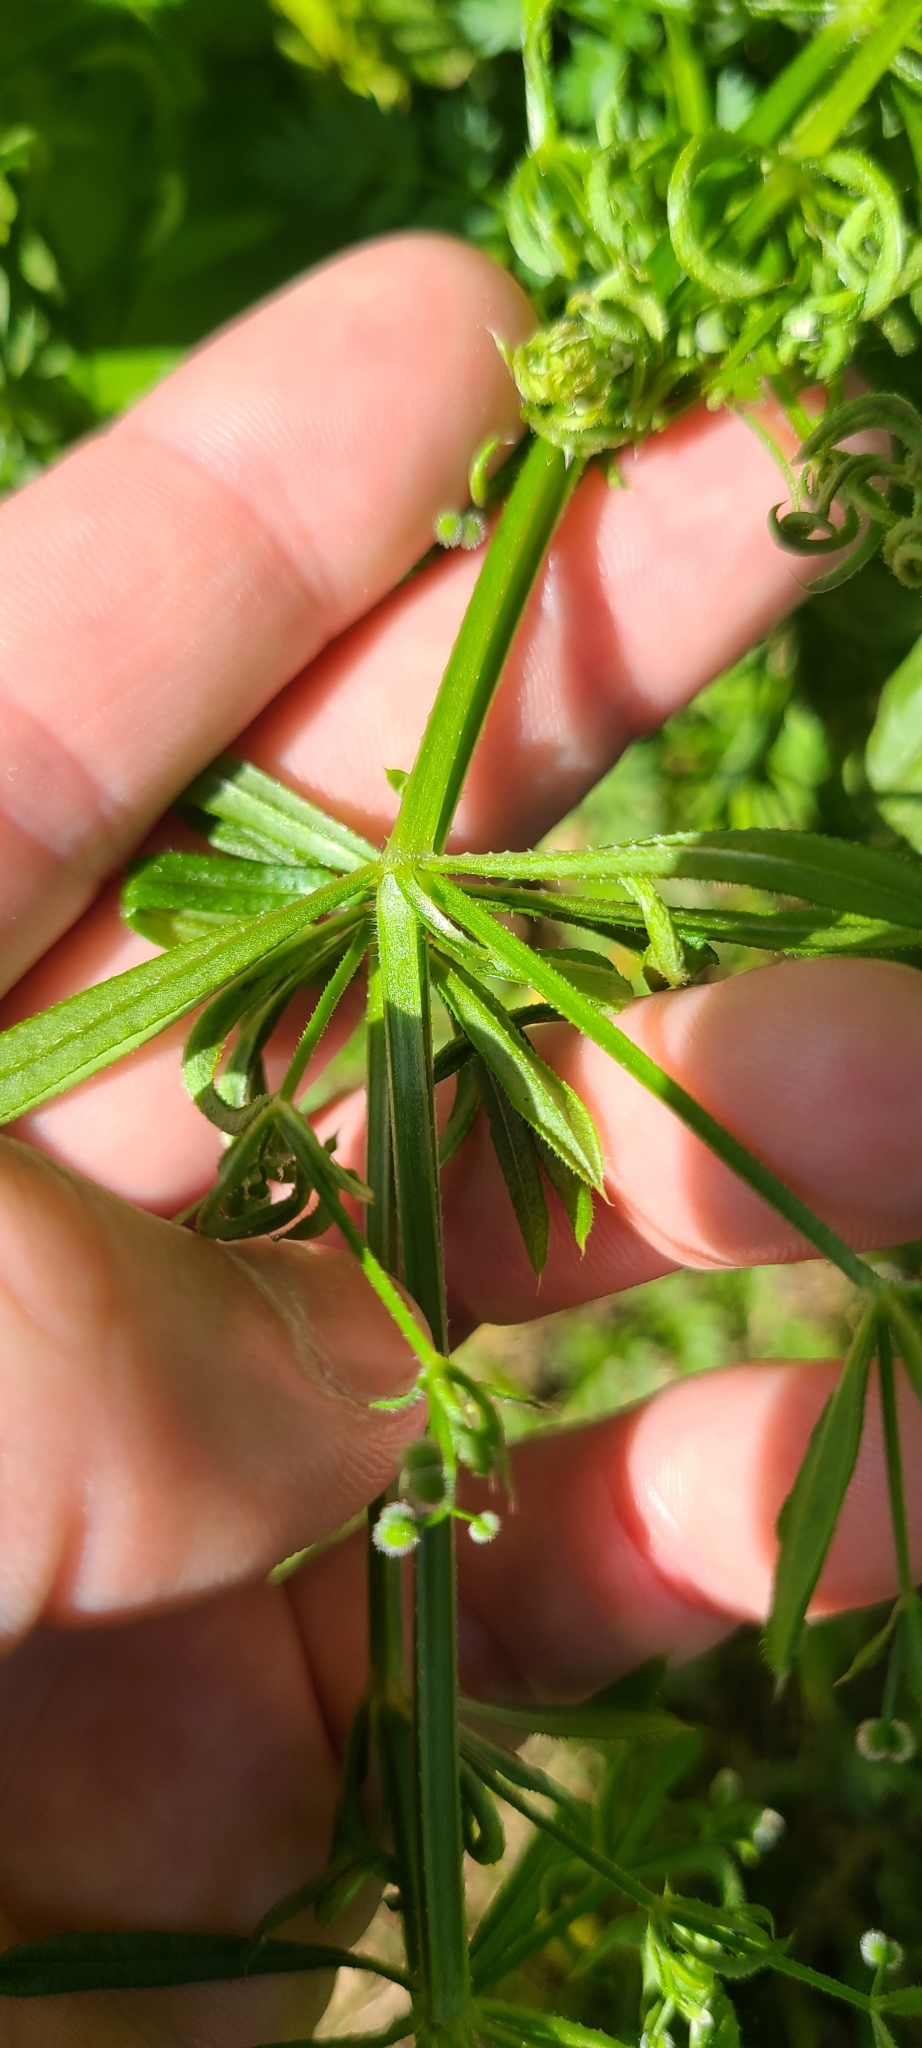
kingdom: Plantae
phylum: Tracheophyta
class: Magnoliopsida
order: Gentianales
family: Rubiaceae
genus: Galium
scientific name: Galium aparine
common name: Cleavers
